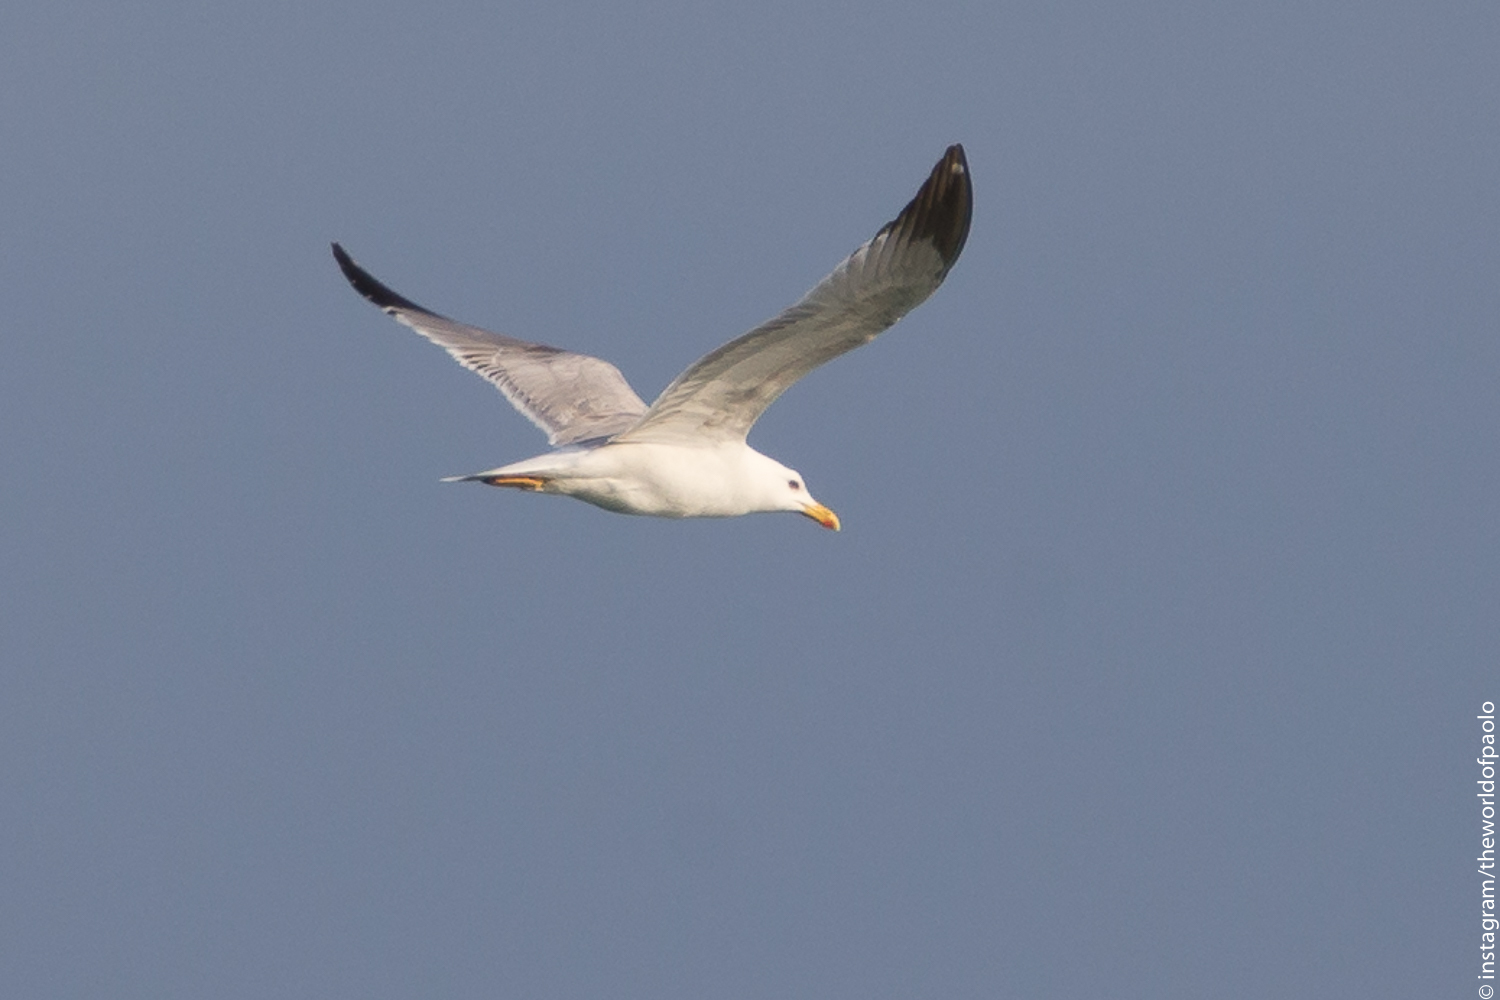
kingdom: Animalia
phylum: Chordata
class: Aves
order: Charadriiformes
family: Laridae
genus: Larus
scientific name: Larus michahellis
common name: Yellow-legged gull
